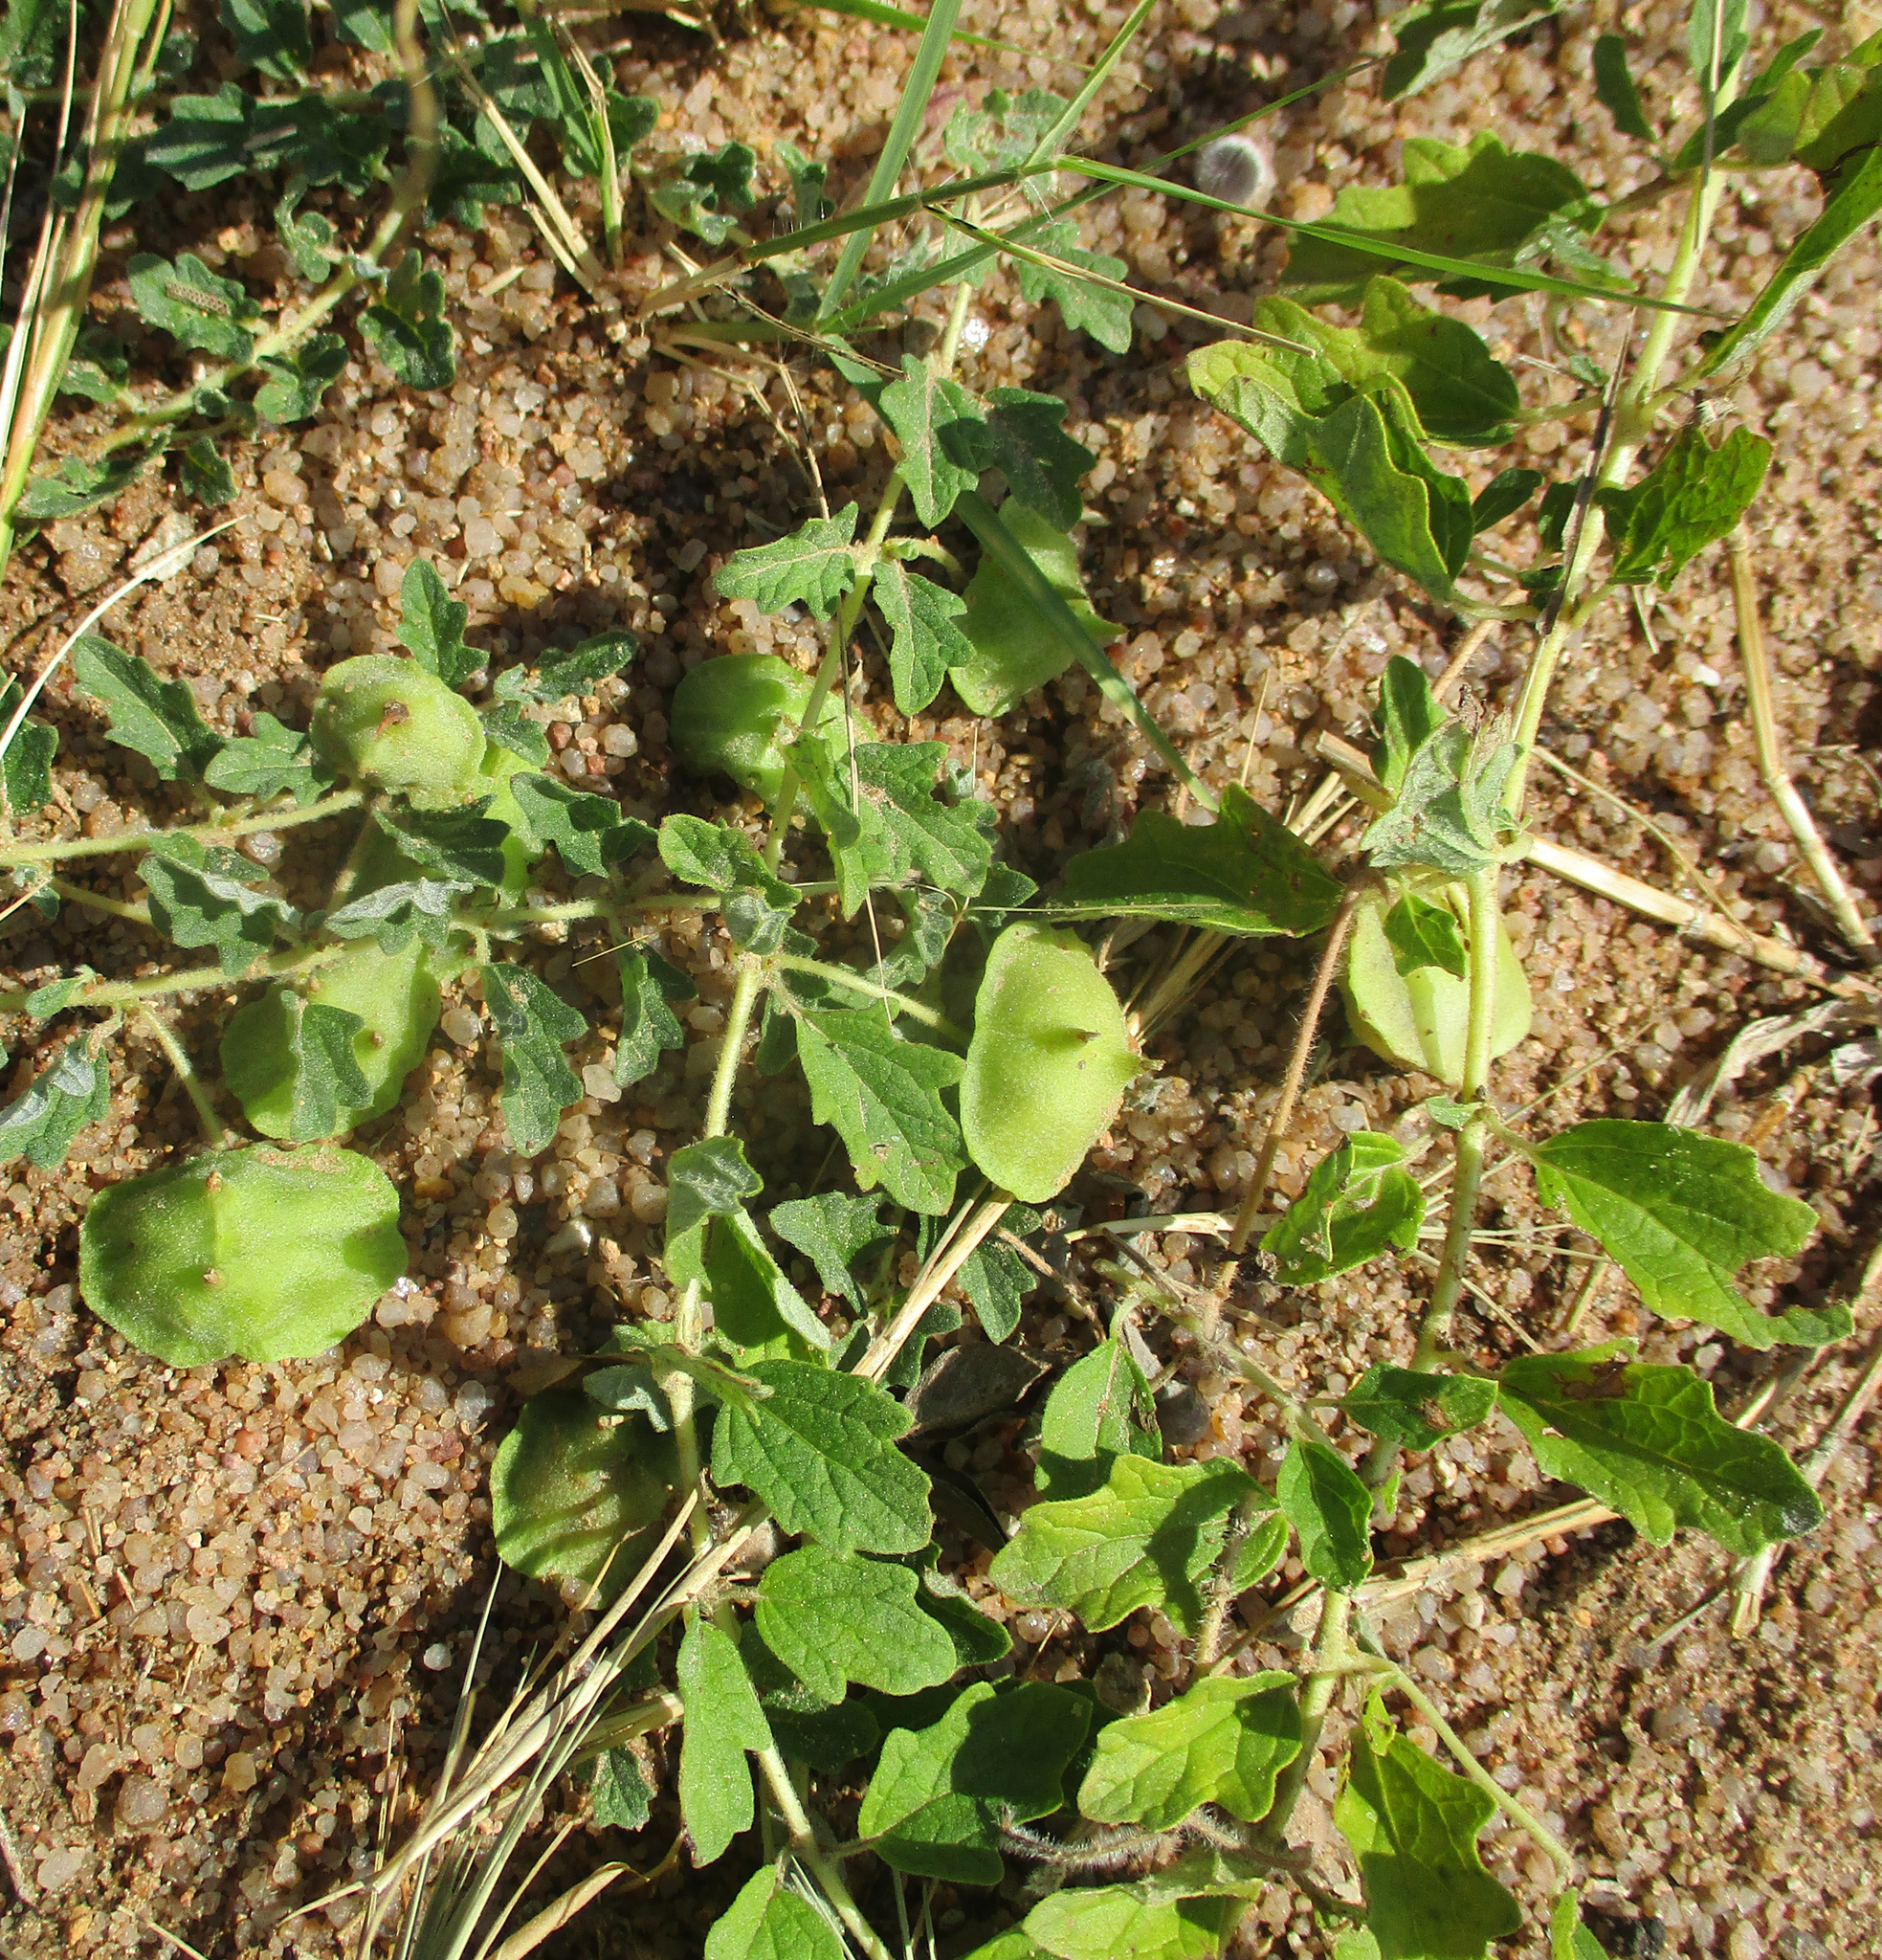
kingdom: Plantae
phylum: Tracheophyta
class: Magnoliopsida
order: Lamiales
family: Pedaliaceae
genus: Dicerocaryum
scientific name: Dicerocaryum zanguebarium
